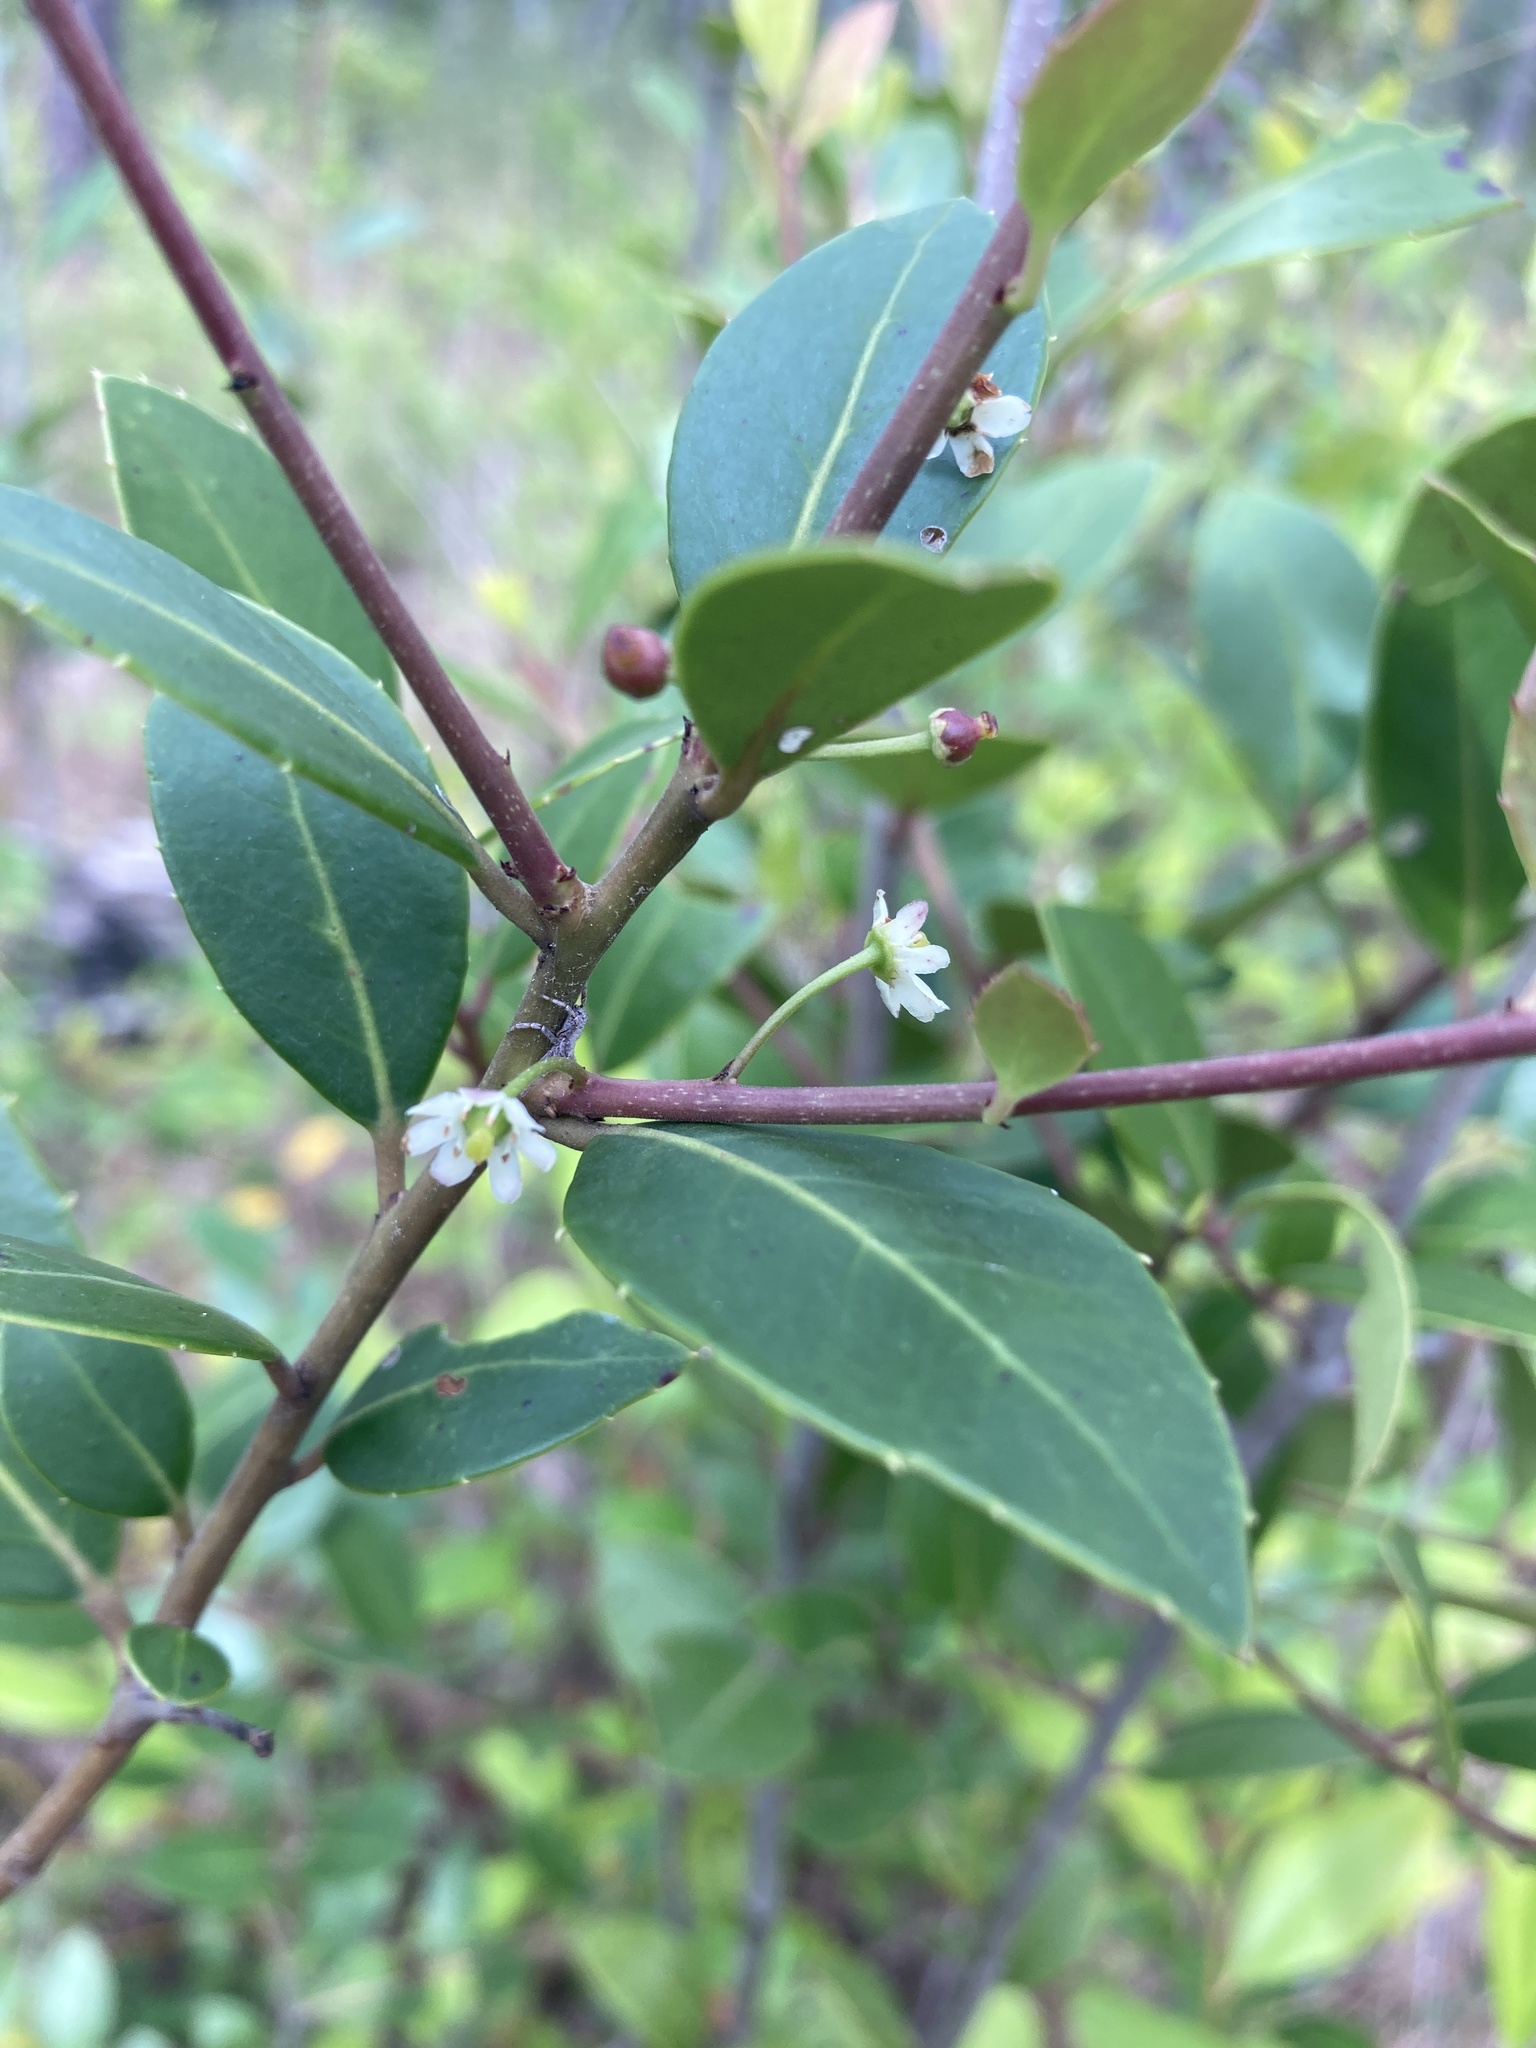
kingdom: Plantae
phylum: Tracheophyta
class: Magnoliopsida
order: Aquifoliales
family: Aquifoliaceae
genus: Ilex
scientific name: Ilex coriacea
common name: Sweet gallberry
